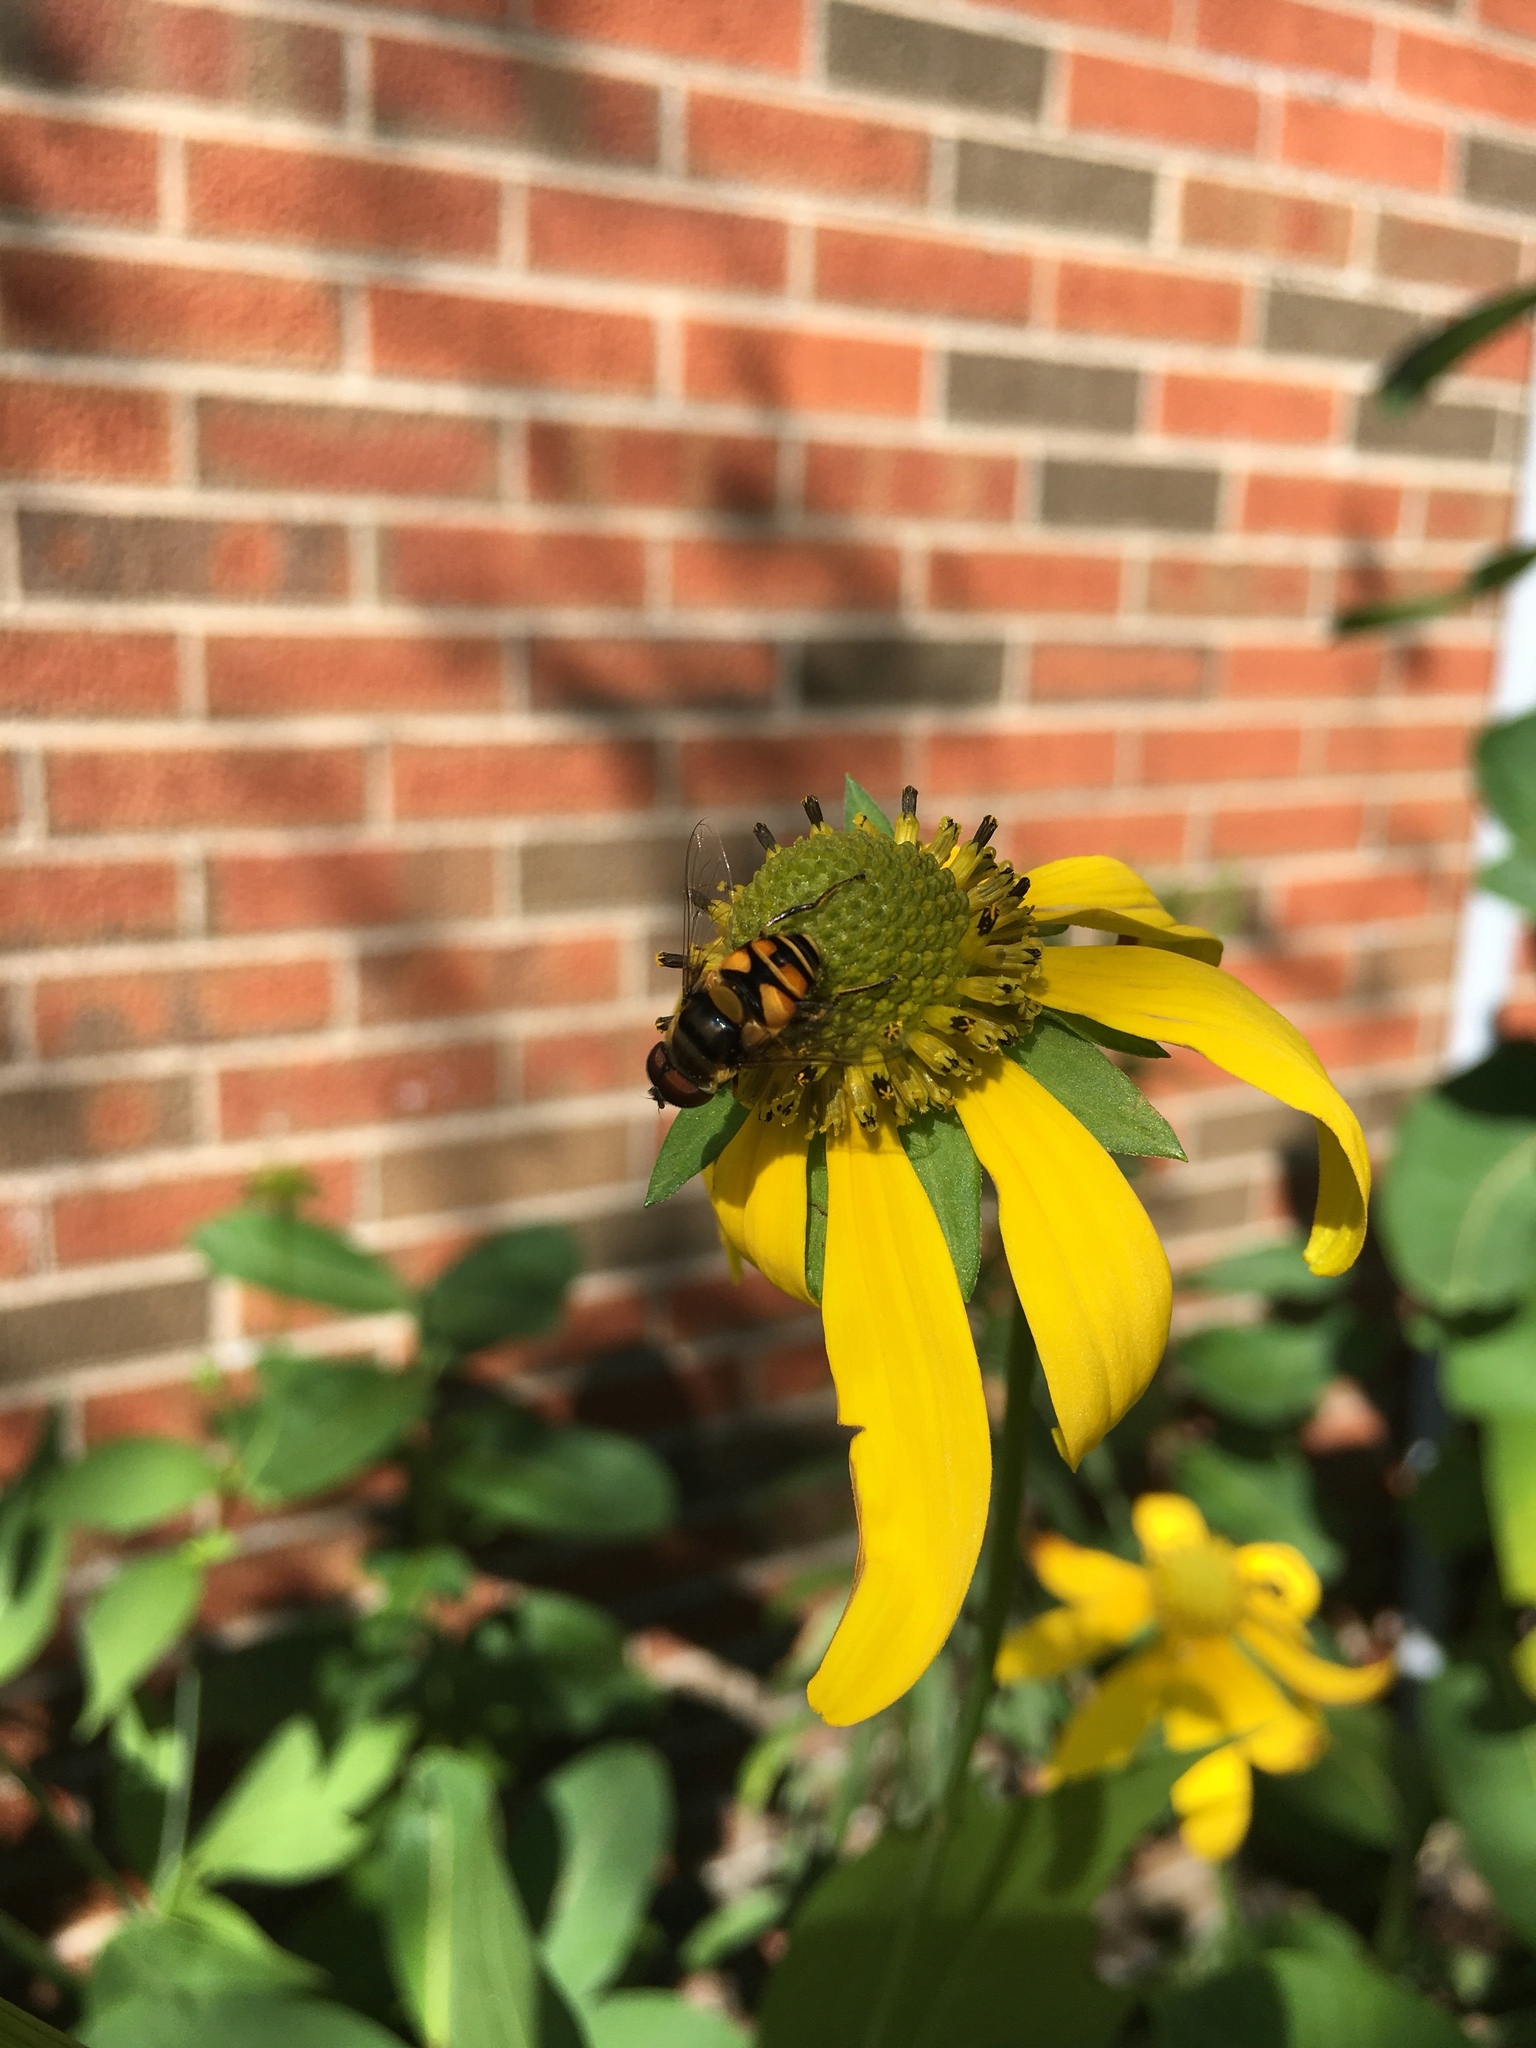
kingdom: Animalia
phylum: Arthropoda
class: Insecta
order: Diptera
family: Syrphidae
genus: Eristalis
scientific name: Eristalis transversa
